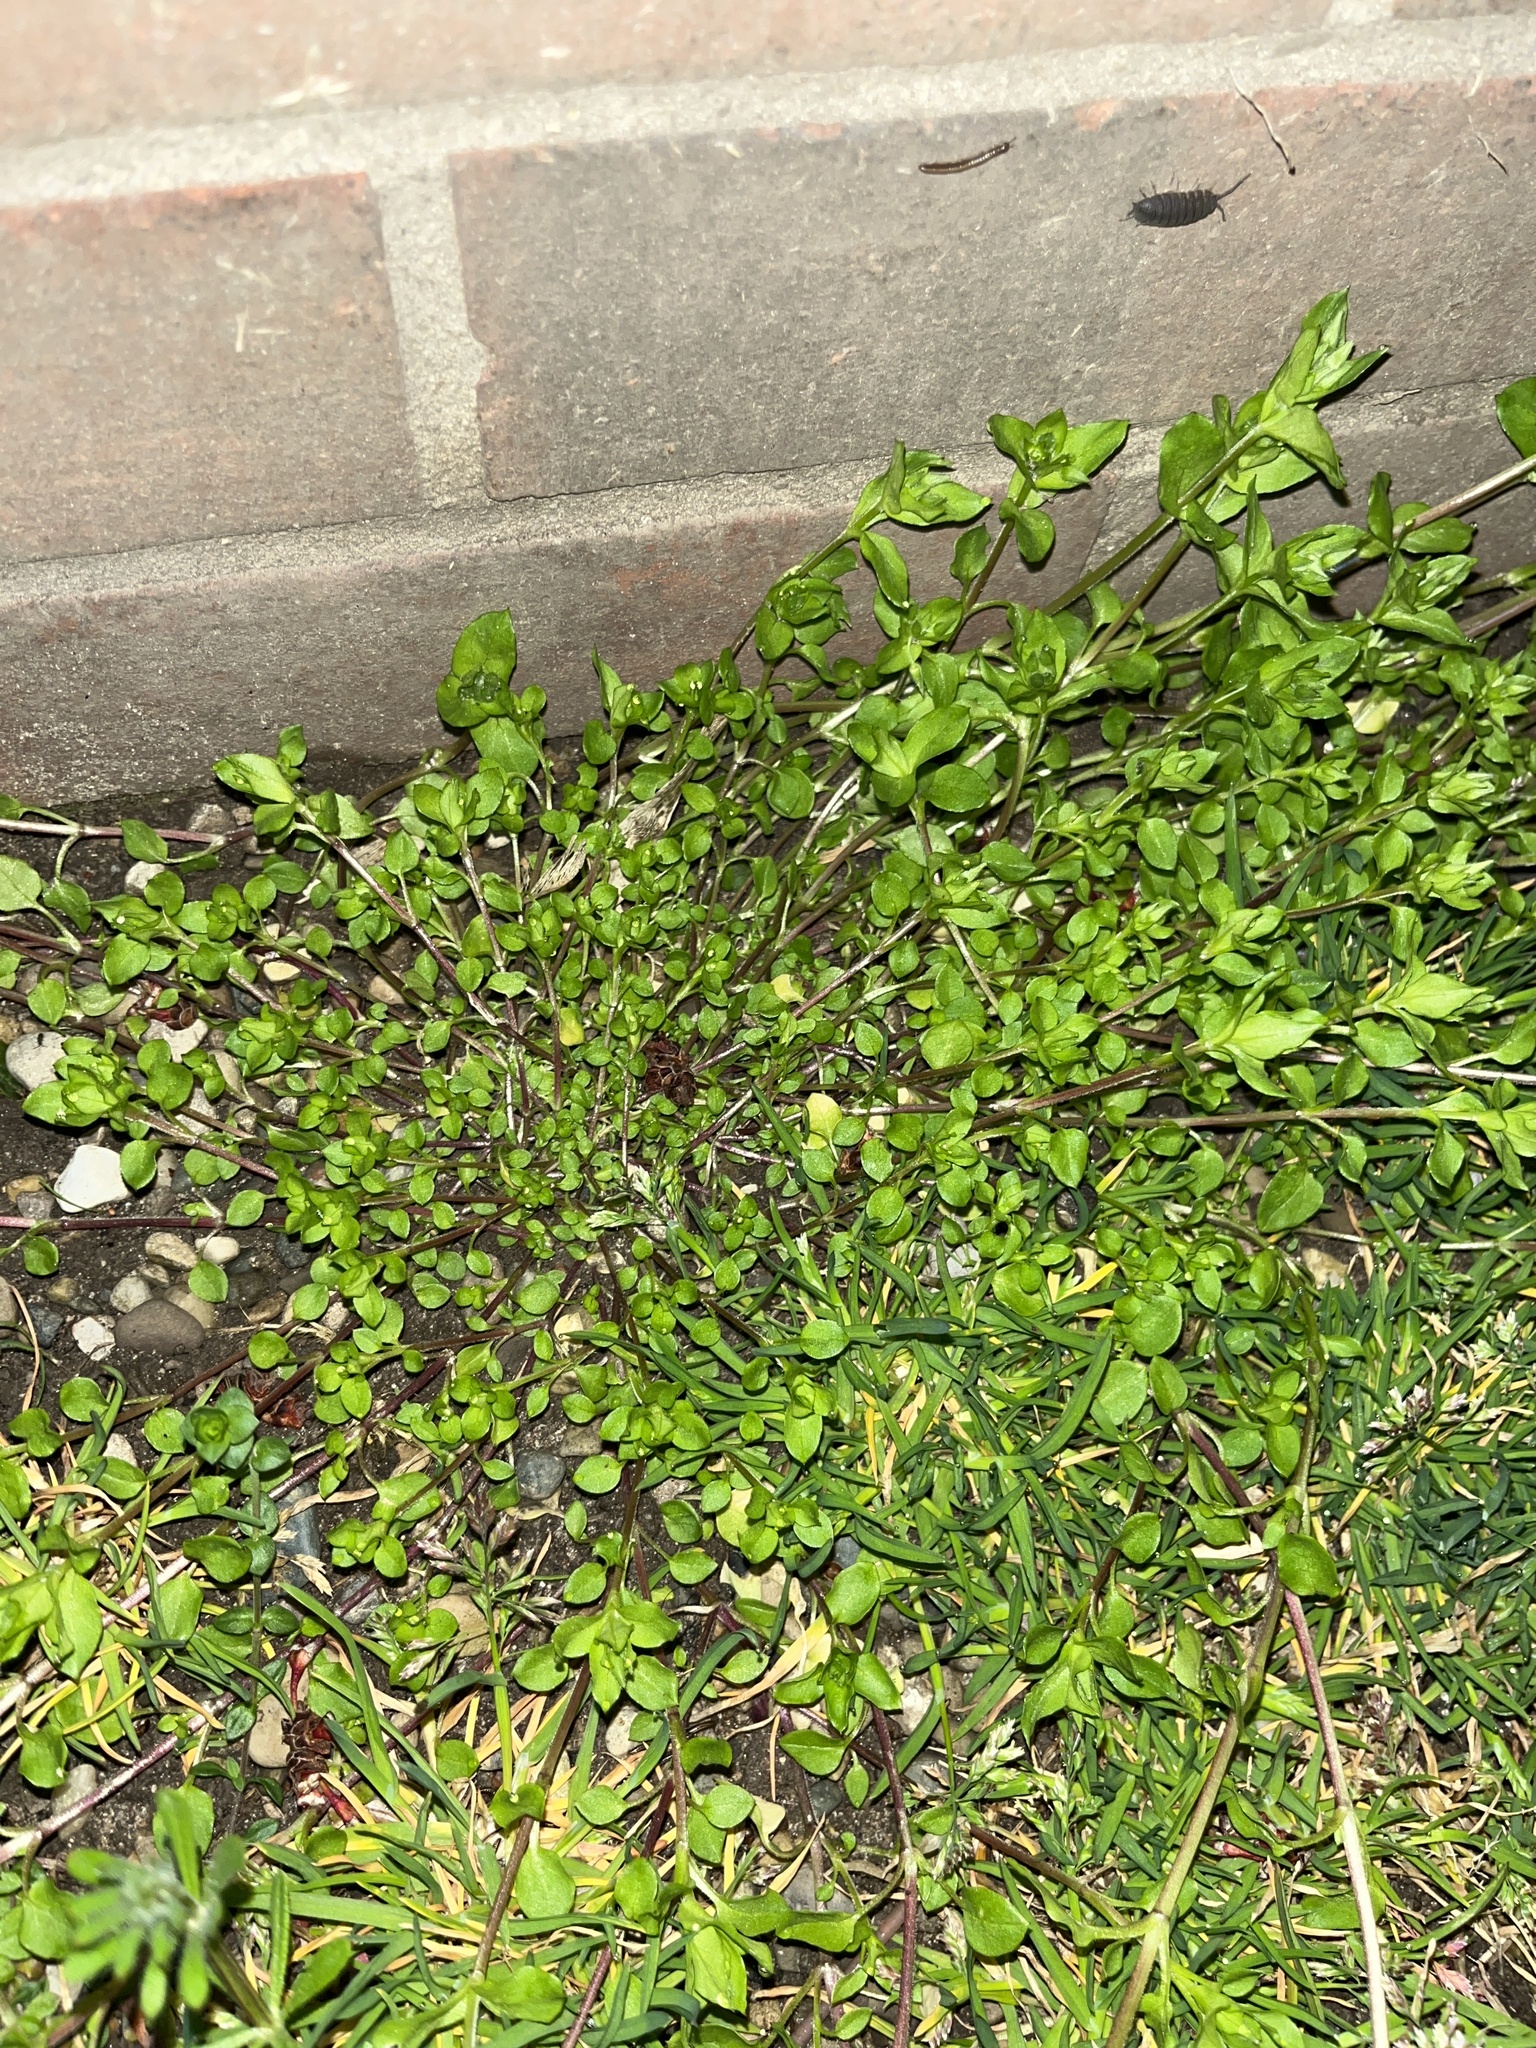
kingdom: Plantae
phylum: Tracheophyta
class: Magnoliopsida
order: Caryophyllales
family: Caryophyllaceae
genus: Stellaria
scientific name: Stellaria media
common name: Common chickweed
